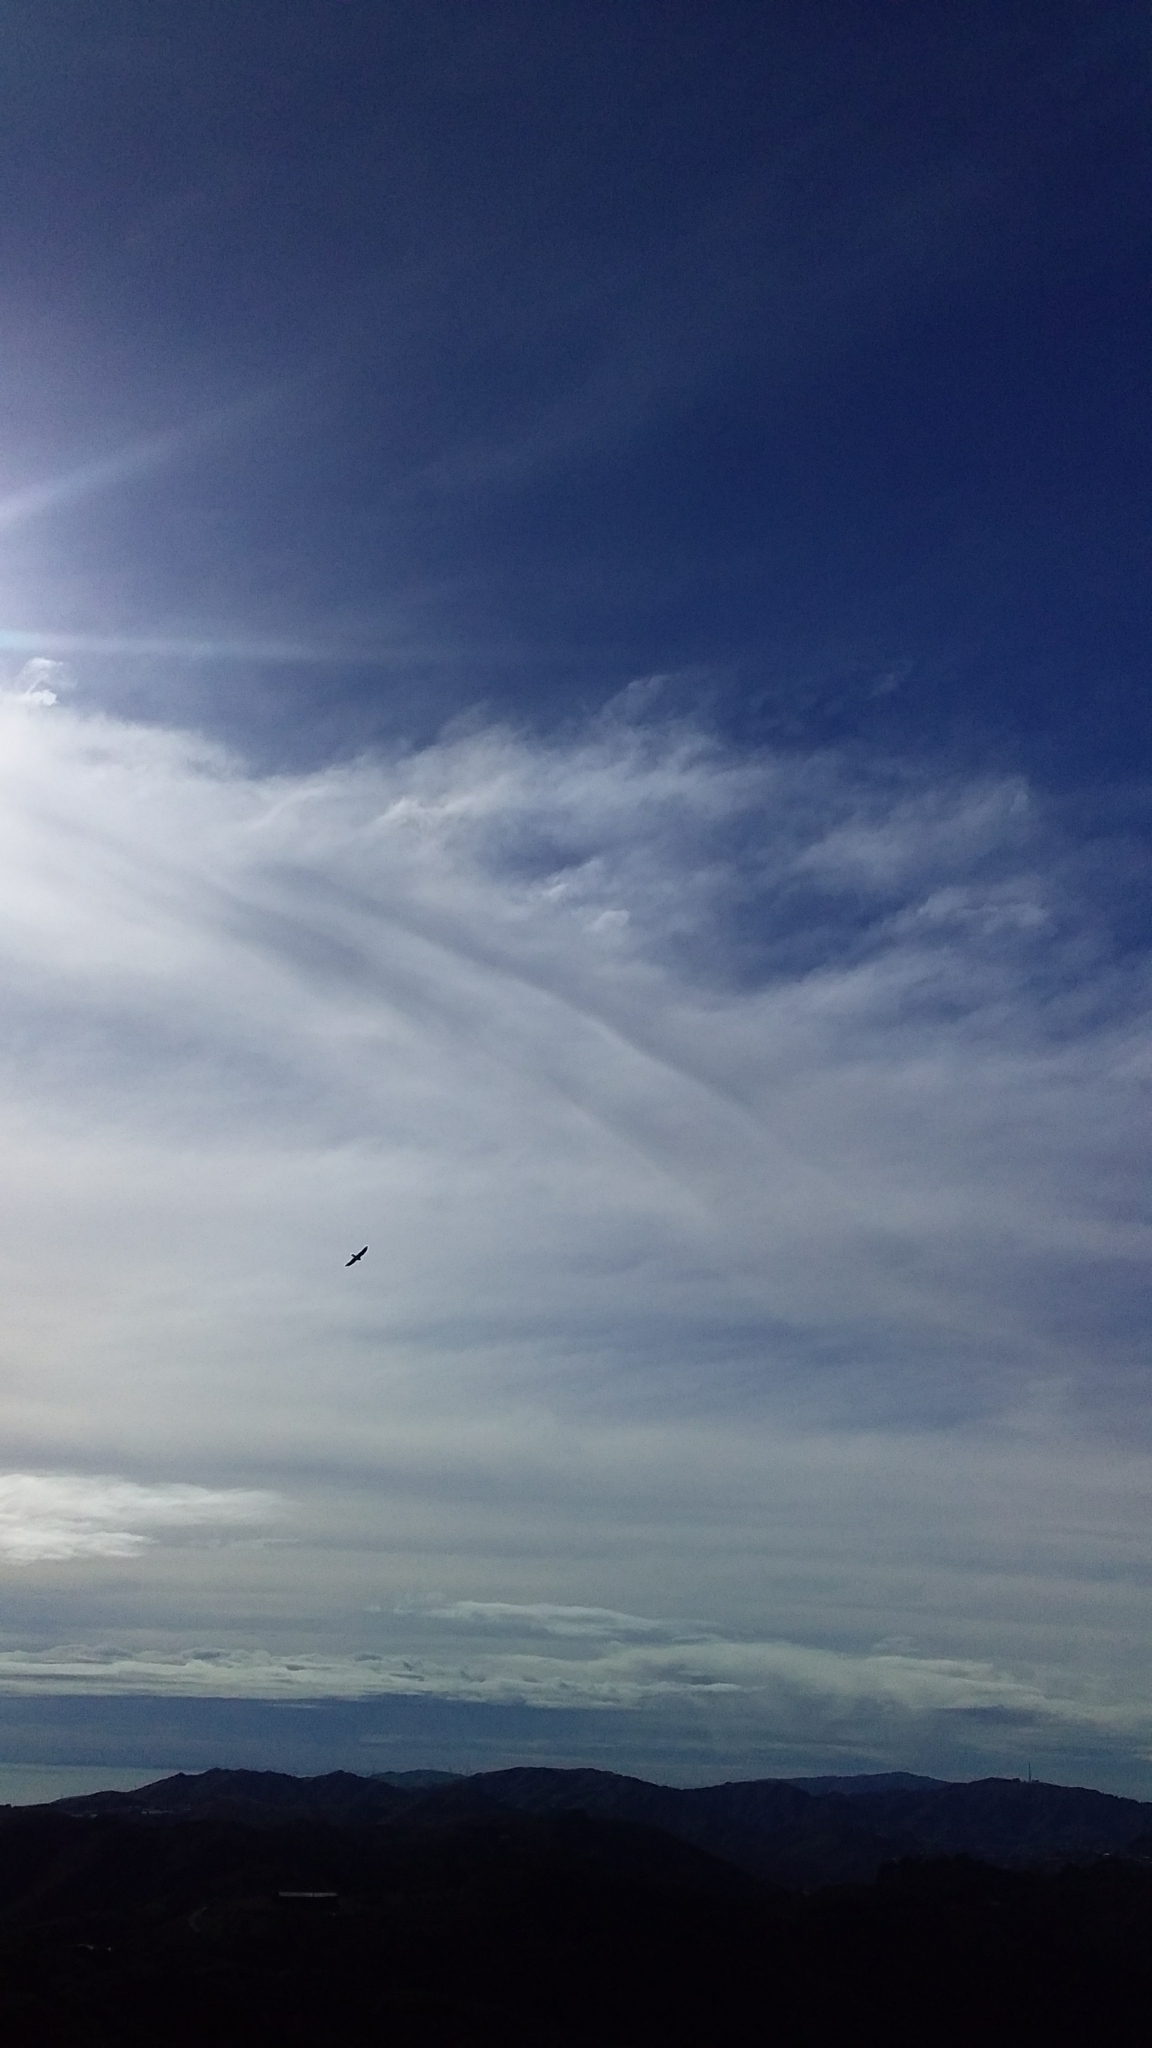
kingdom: Animalia
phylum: Chordata
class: Aves
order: Falconiformes
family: Falconidae
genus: Falco
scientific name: Falco novaeseelandiae
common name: New zealand falcon
